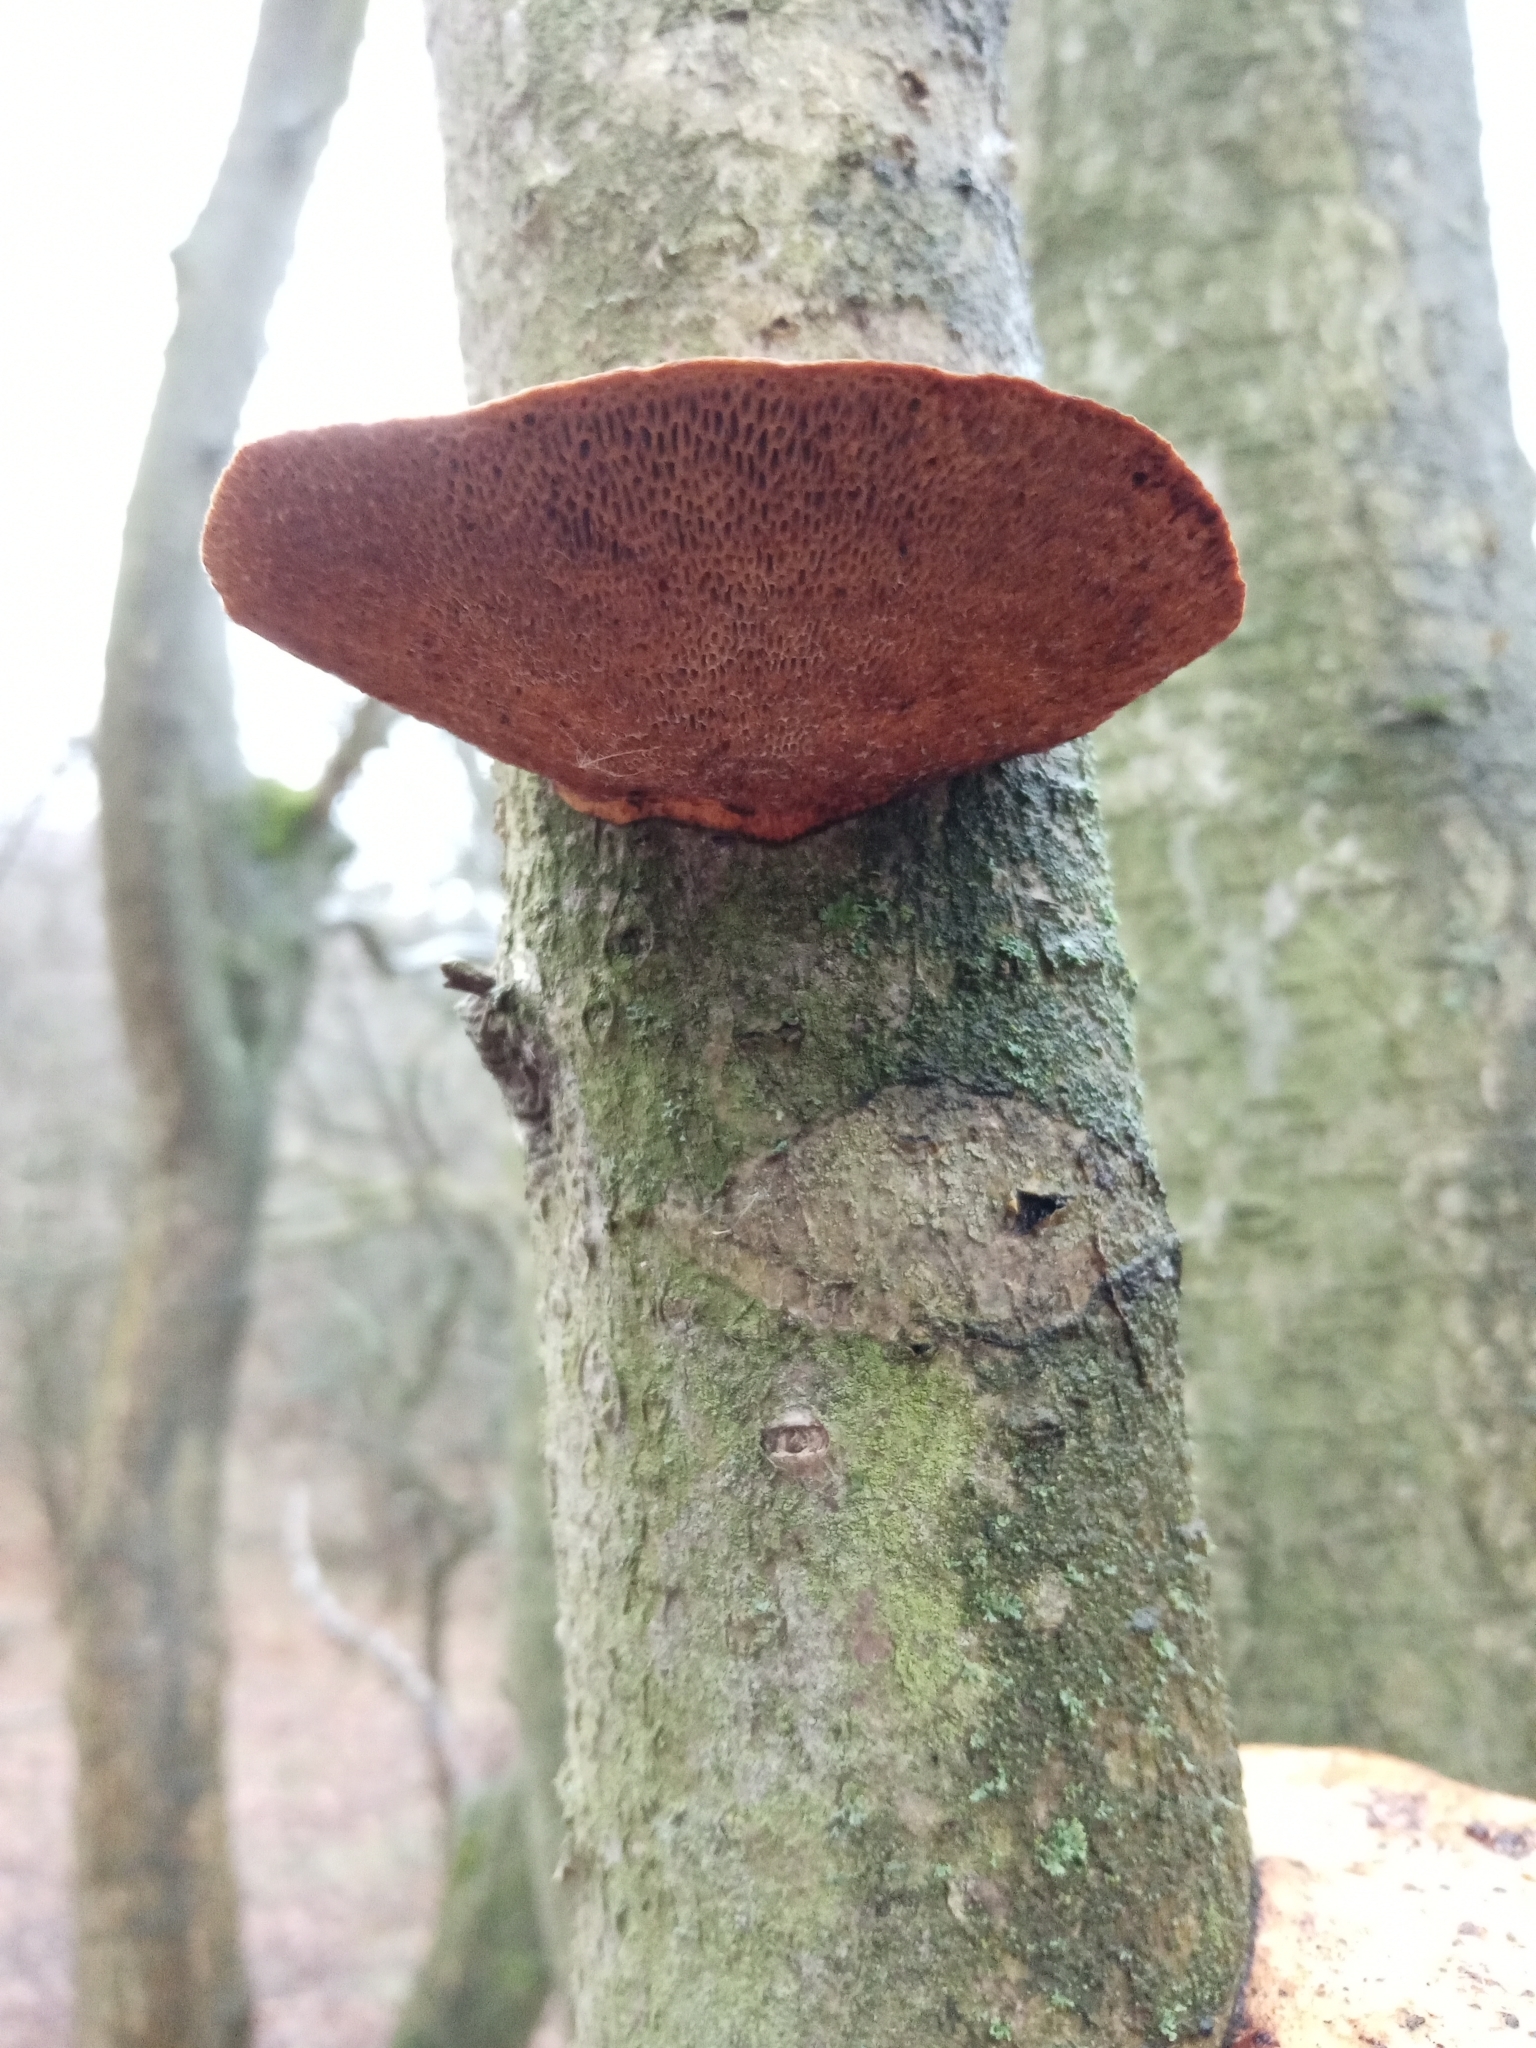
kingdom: Fungi
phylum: Basidiomycota
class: Agaricomycetes
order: Polyporales
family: Polyporaceae
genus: Daedaleopsis
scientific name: Daedaleopsis confragosa
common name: Blushing bracket
